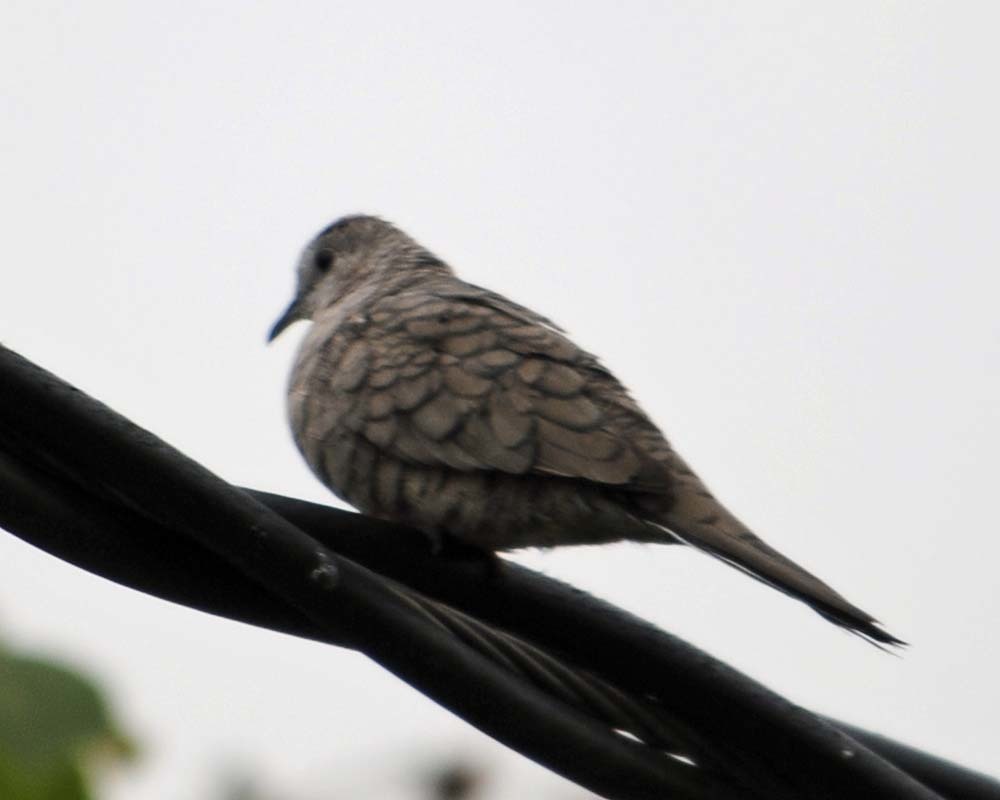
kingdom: Animalia
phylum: Chordata
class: Aves
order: Columbiformes
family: Columbidae
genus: Columbina
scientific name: Columbina inca
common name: Inca dove
